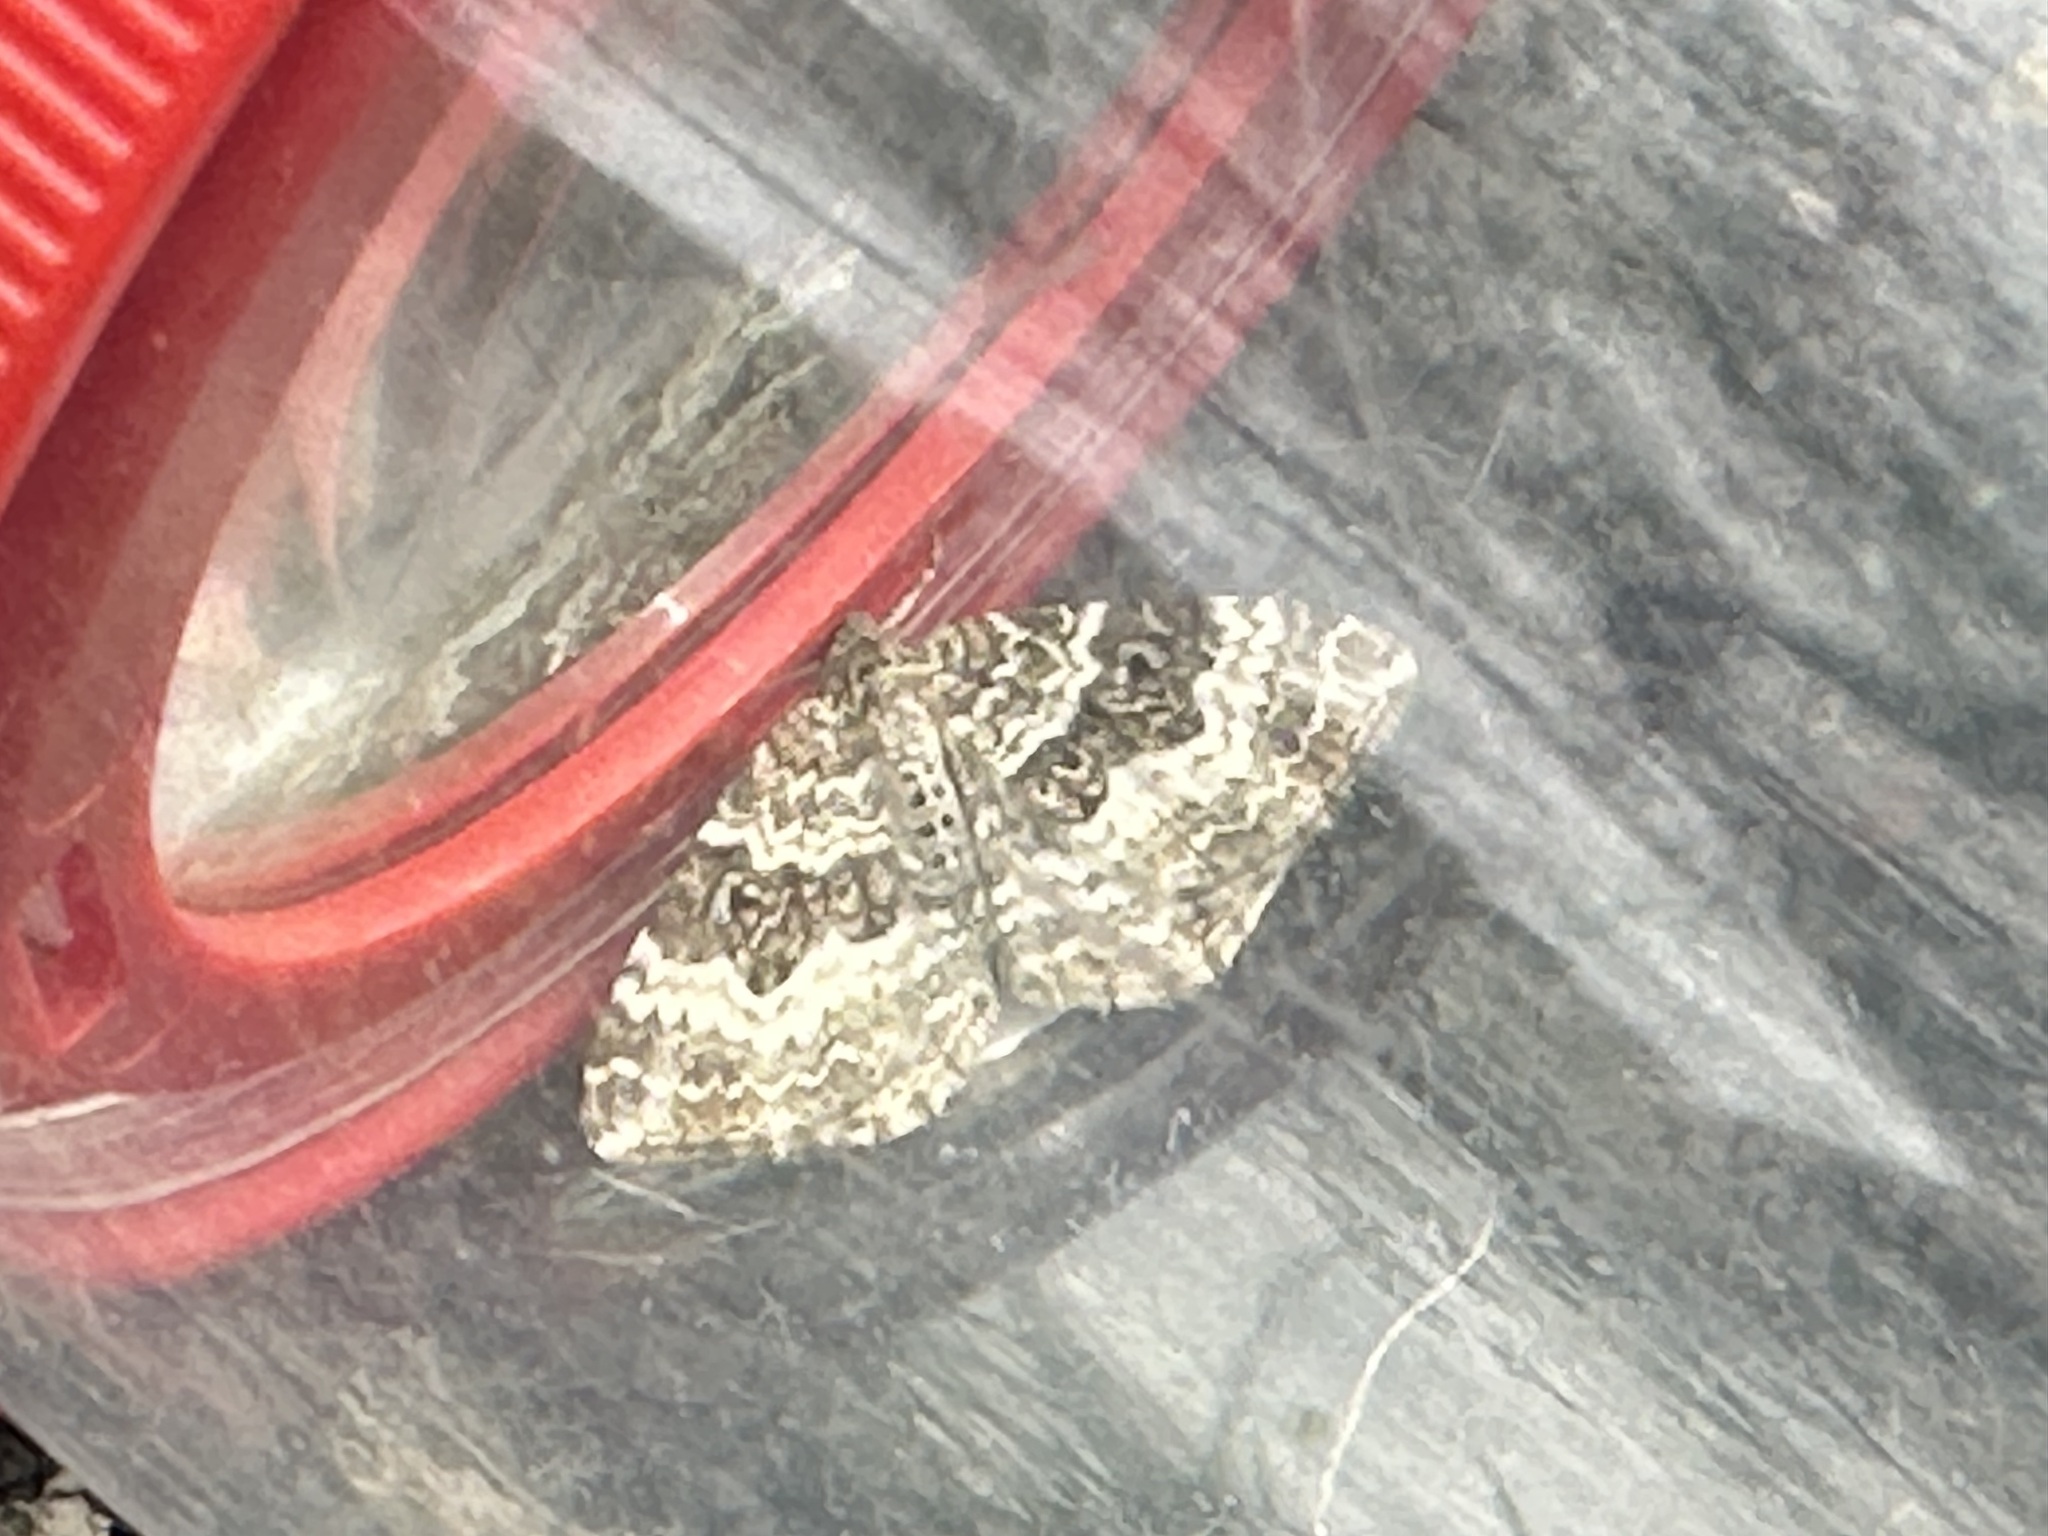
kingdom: Animalia
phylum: Arthropoda
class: Insecta
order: Lepidoptera
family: Geometridae
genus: Epirrhoe
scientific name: Epirrhoe alternata
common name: Common carpet
